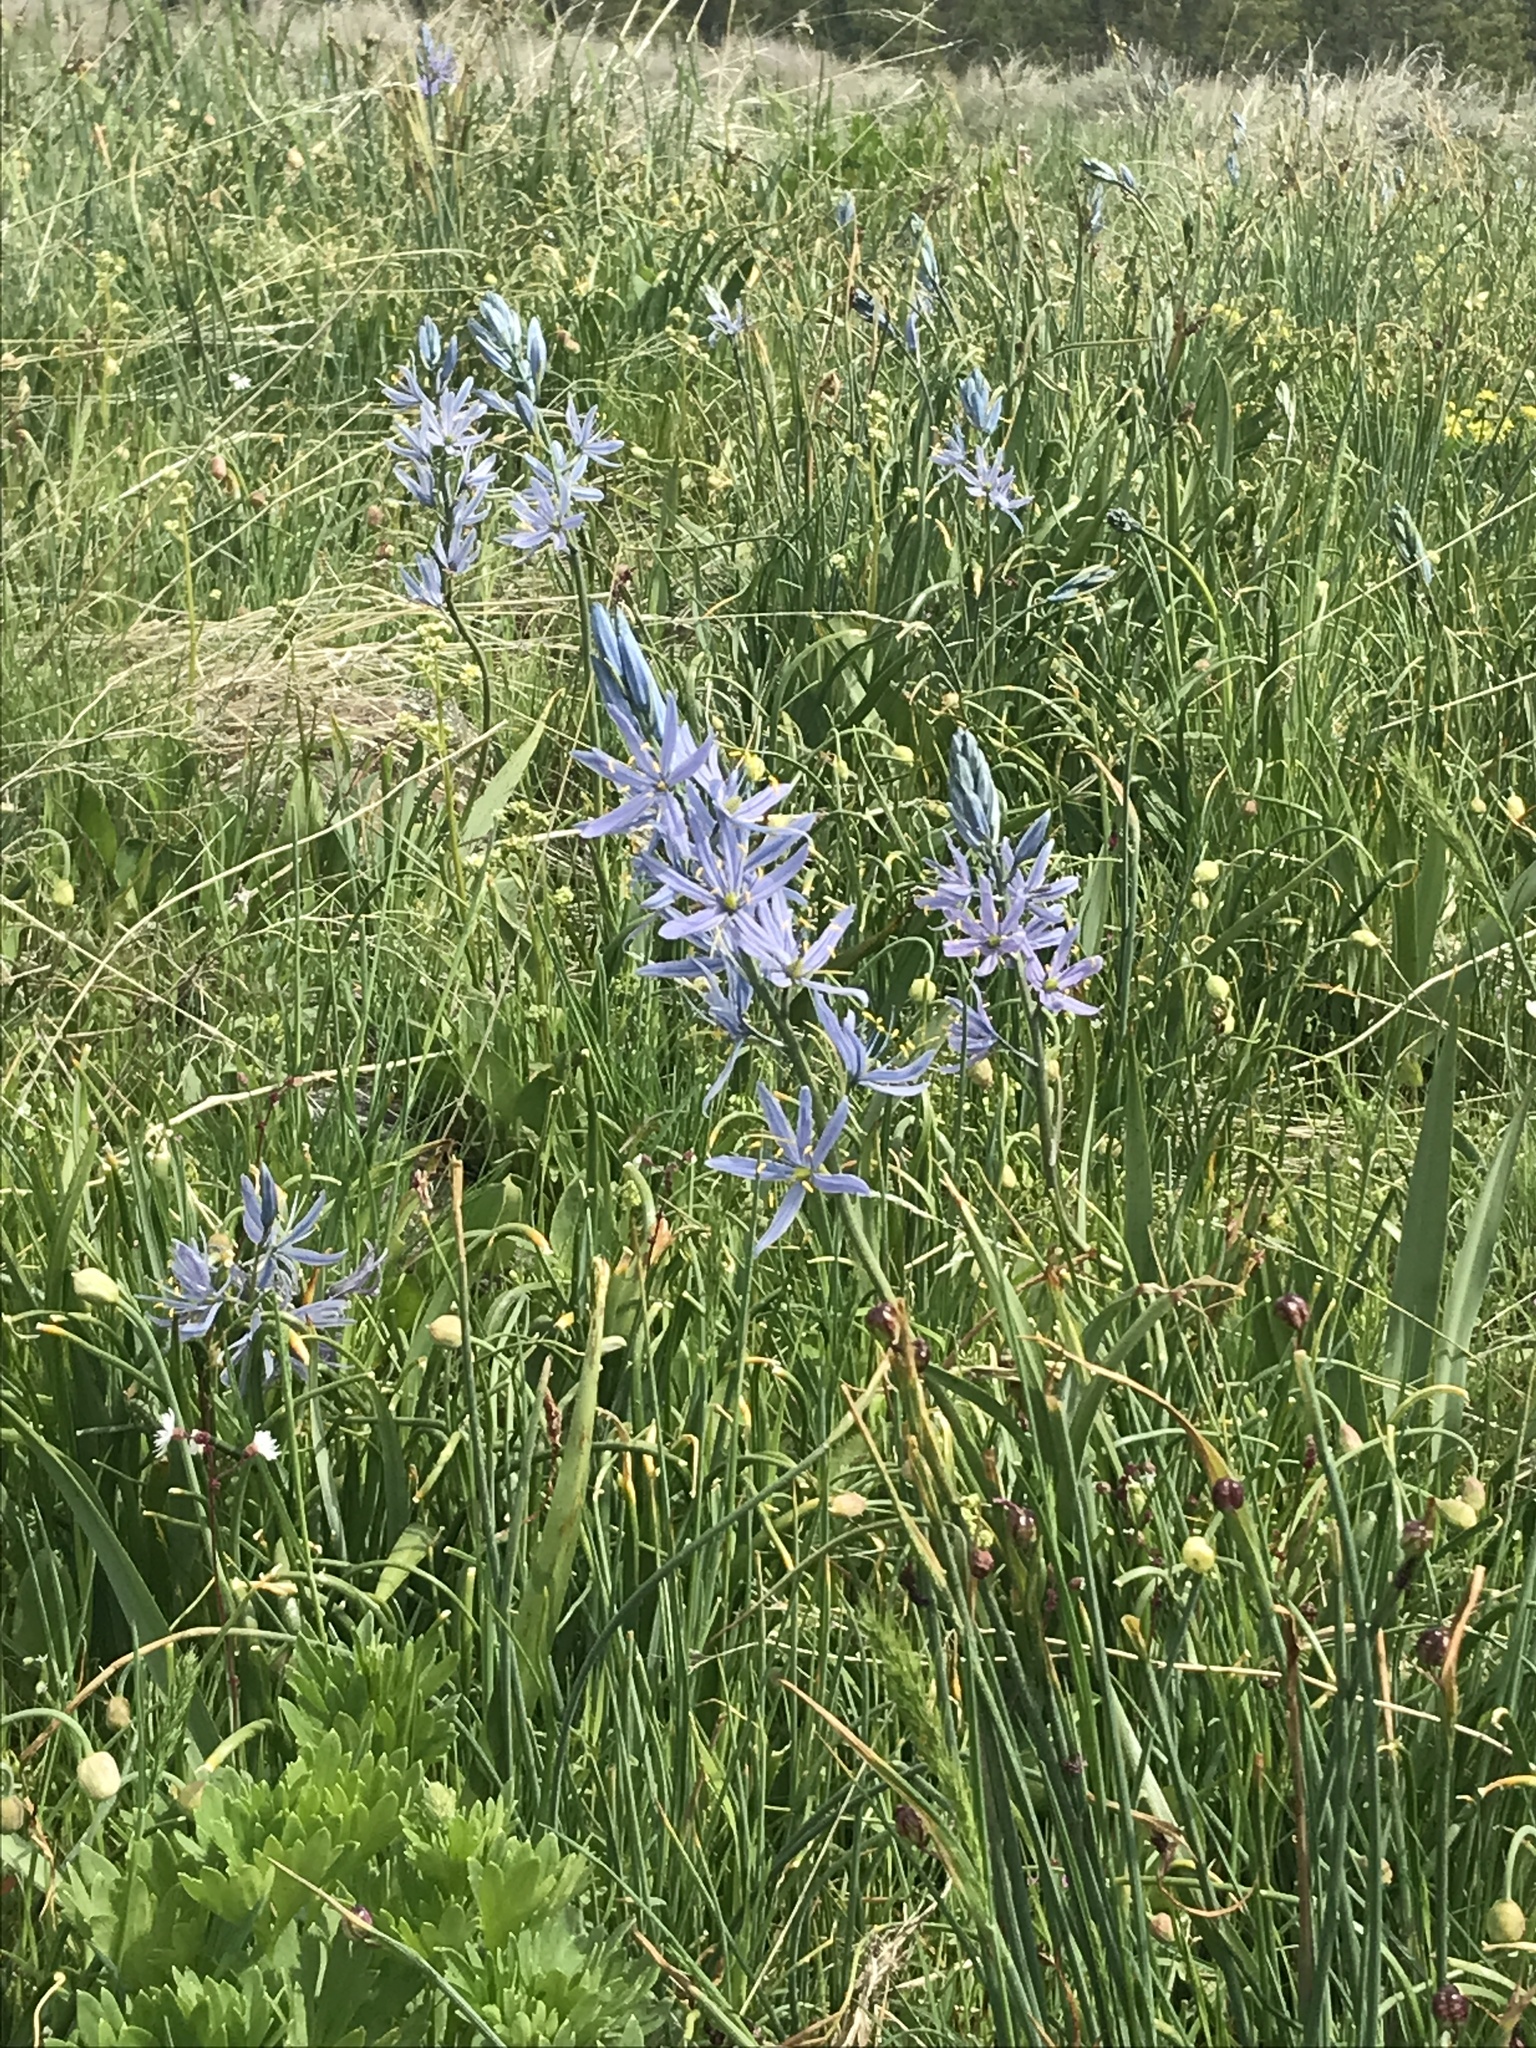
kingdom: Plantae
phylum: Tracheophyta
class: Liliopsida
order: Asparagales
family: Asparagaceae
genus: Camassia
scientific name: Camassia quamash
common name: Common camas
